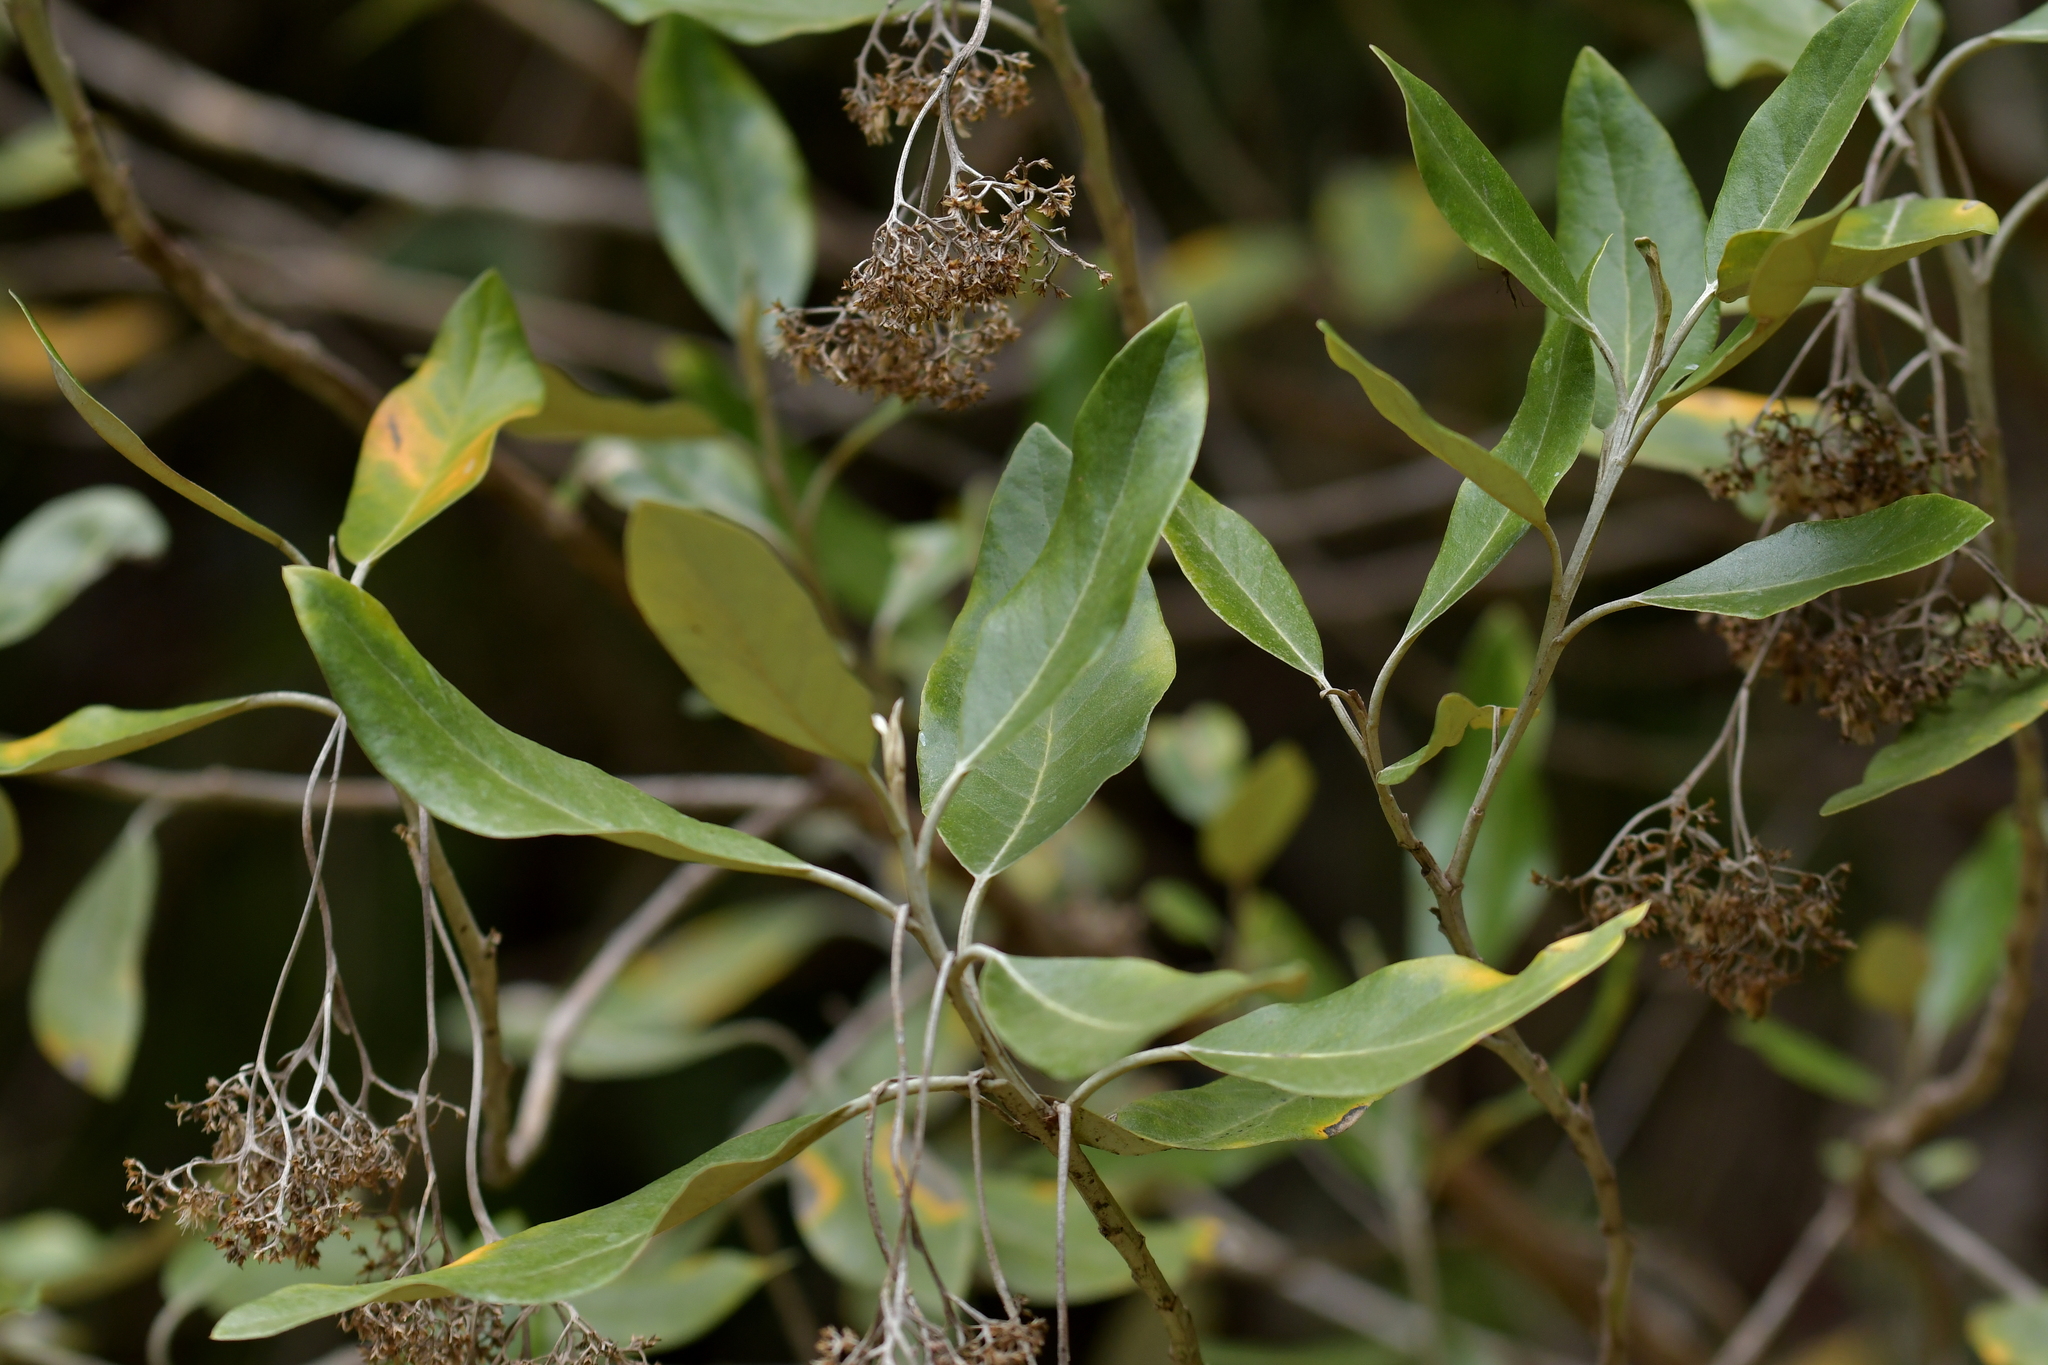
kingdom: Plantae
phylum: Tracheophyta
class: Magnoliopsida
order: Asterales
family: Asteraceae
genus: Olearia
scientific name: Olearia avicenniifolia
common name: Mangrove-leaf daisybush
